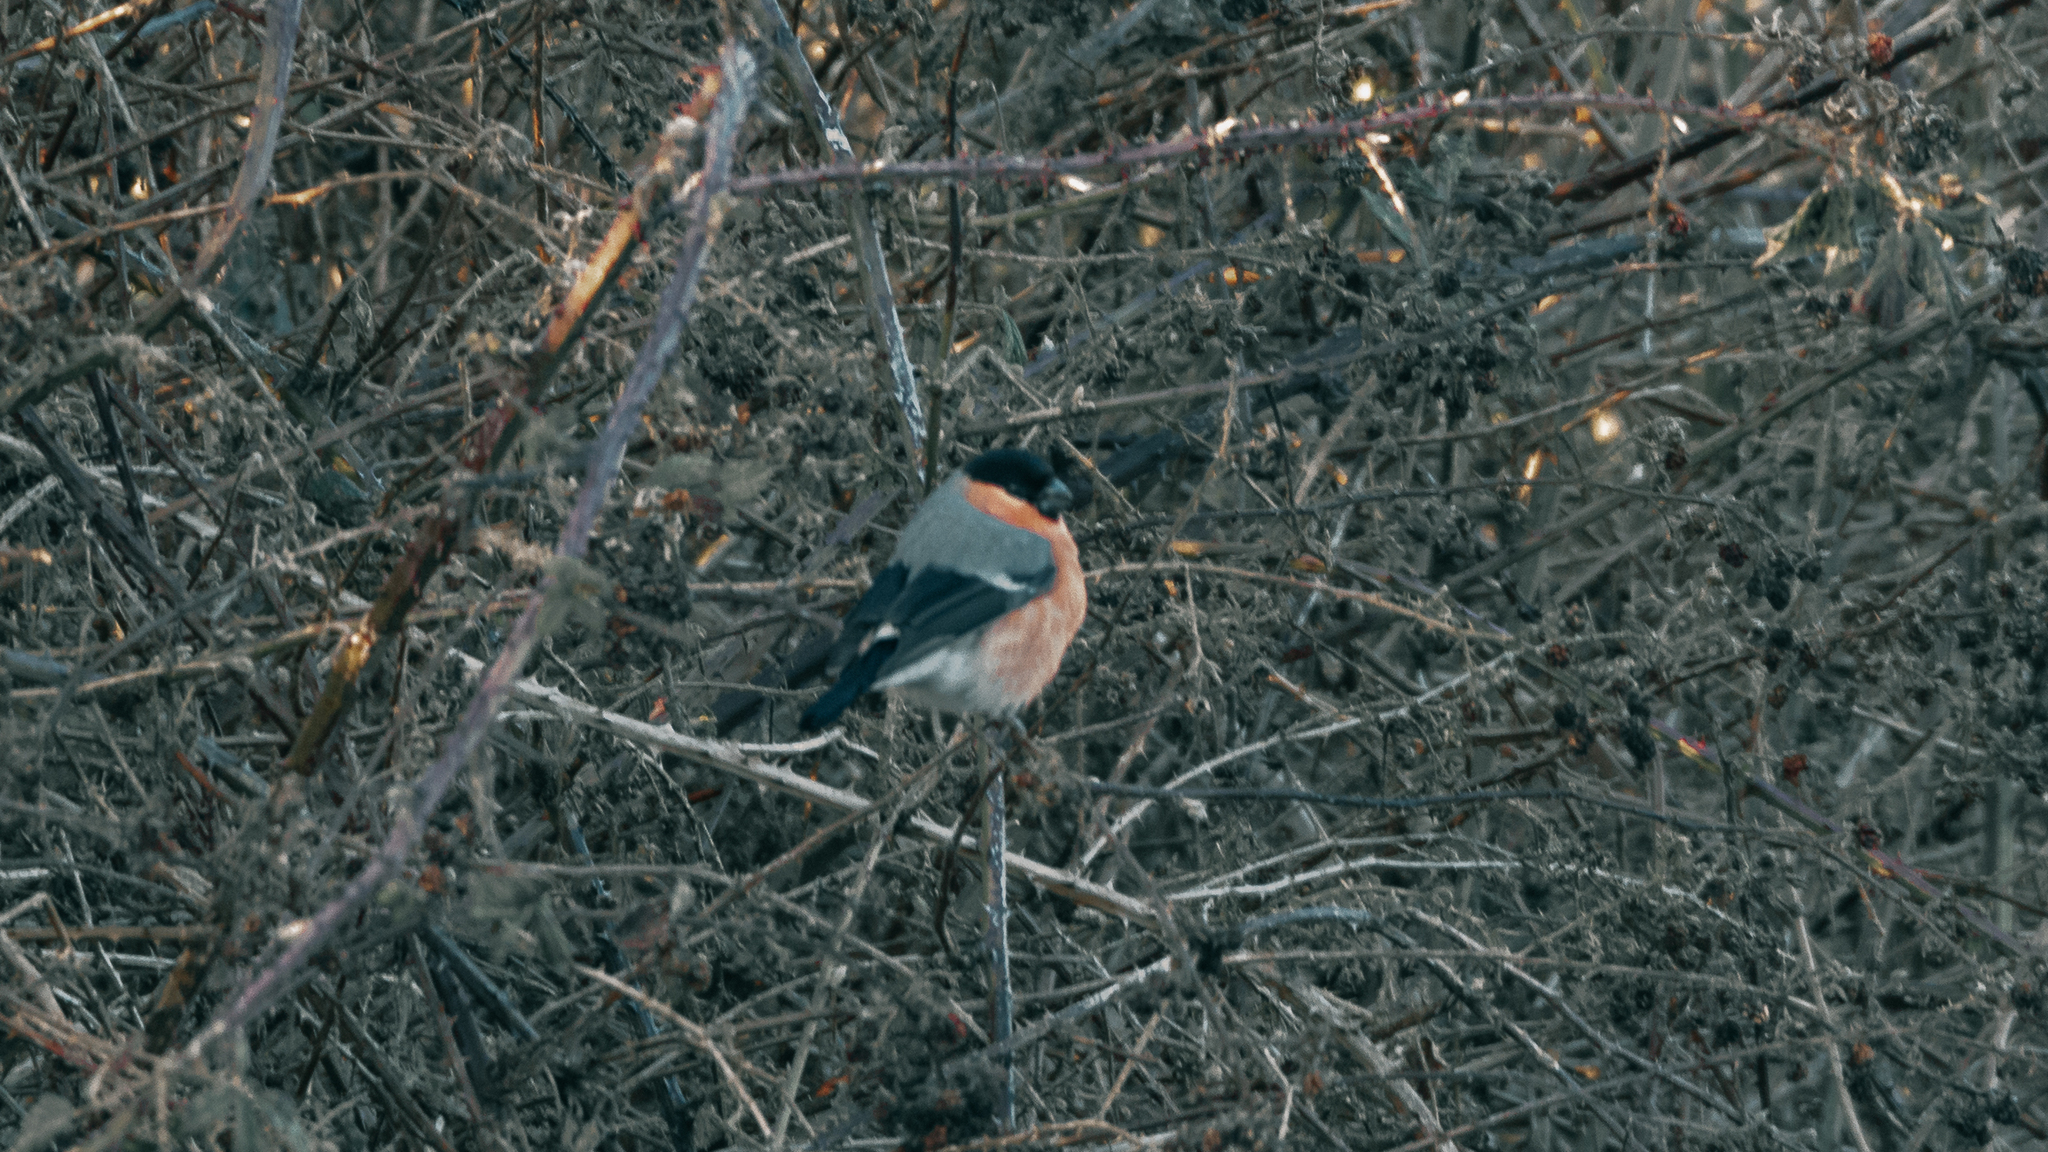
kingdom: Animalia
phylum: Chordata
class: Aves
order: Passeriformes
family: Fringillidae
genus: Pyrrhula
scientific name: Pyrrhula pyrrhula
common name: Eurasian bullfinch
